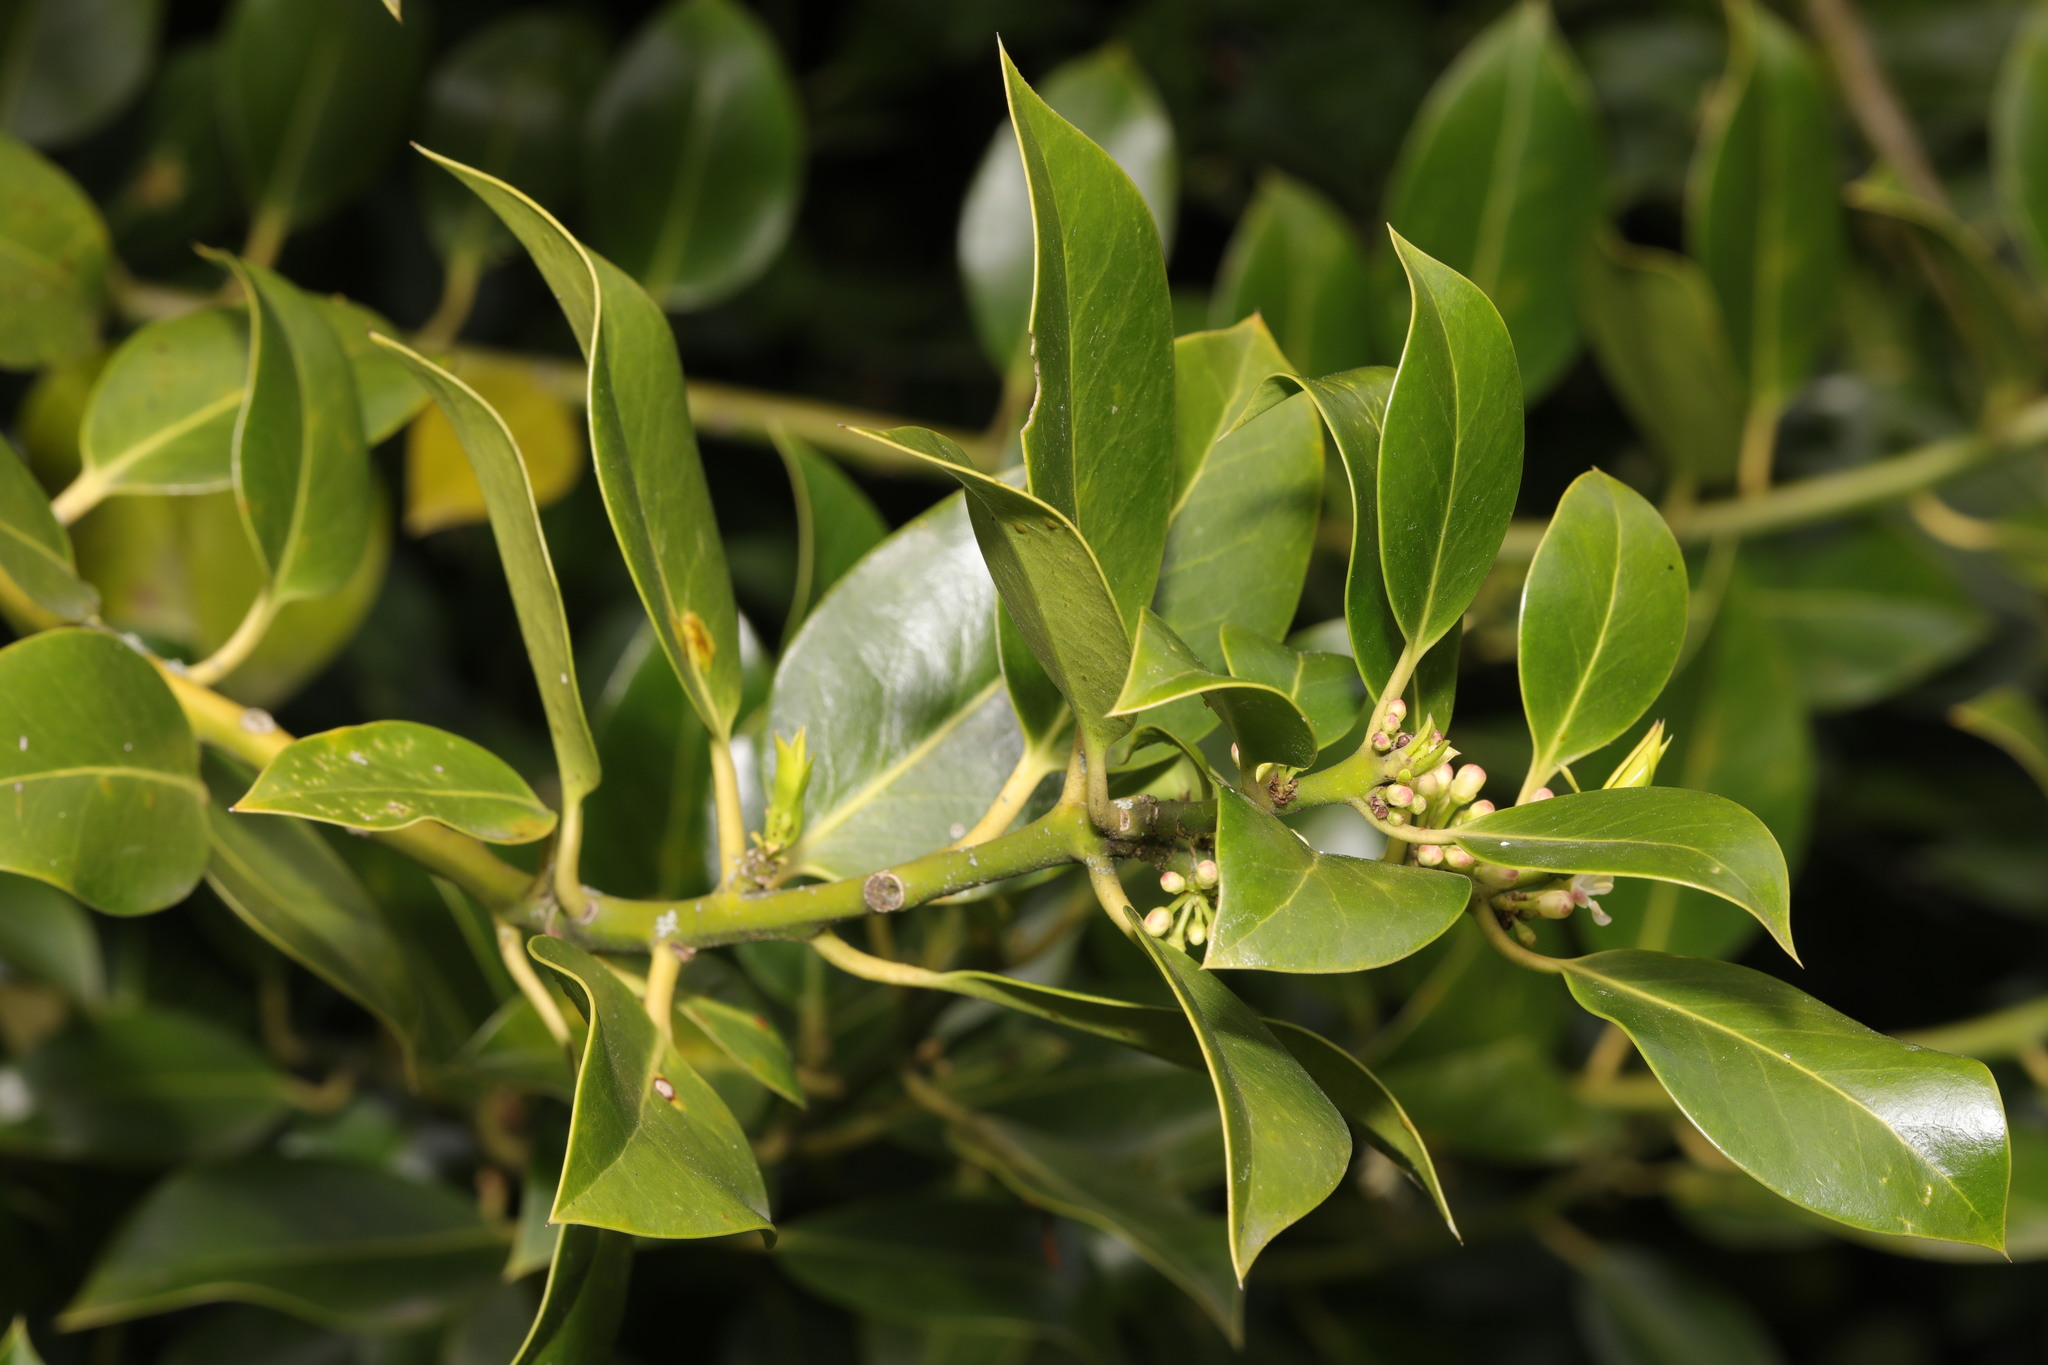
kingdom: Plantae
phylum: Tracheophyta
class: Magnoliopsida
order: Aquifoliales
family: Aquifoliaceae
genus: Ilex
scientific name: Ilex aquifolium
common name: English holly
